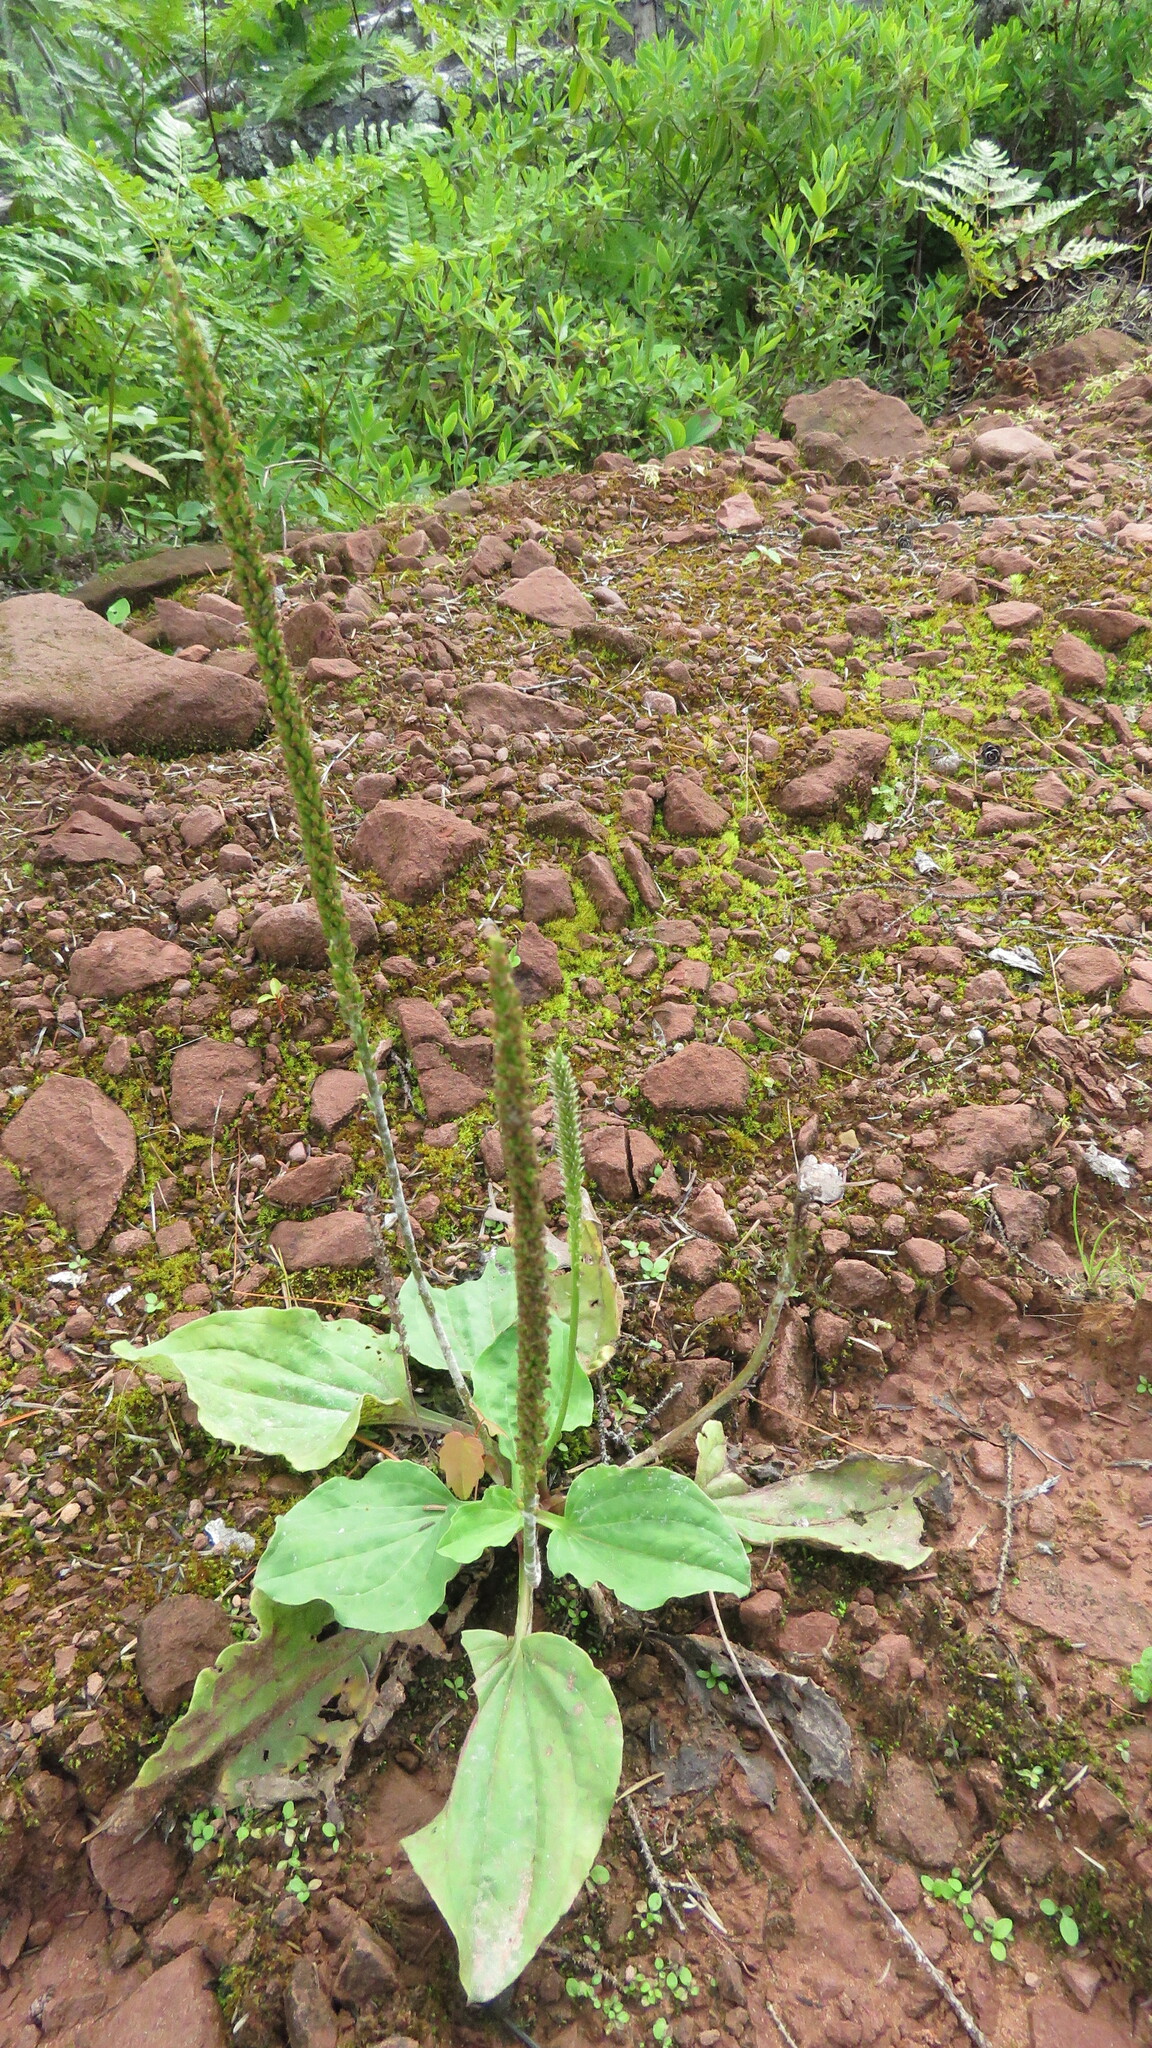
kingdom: Plantae
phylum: Tracheophyta
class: Magnoliopsida
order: Lamiales
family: Plantaginaceae
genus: Plantago
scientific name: Plantago major
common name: Common plantain
